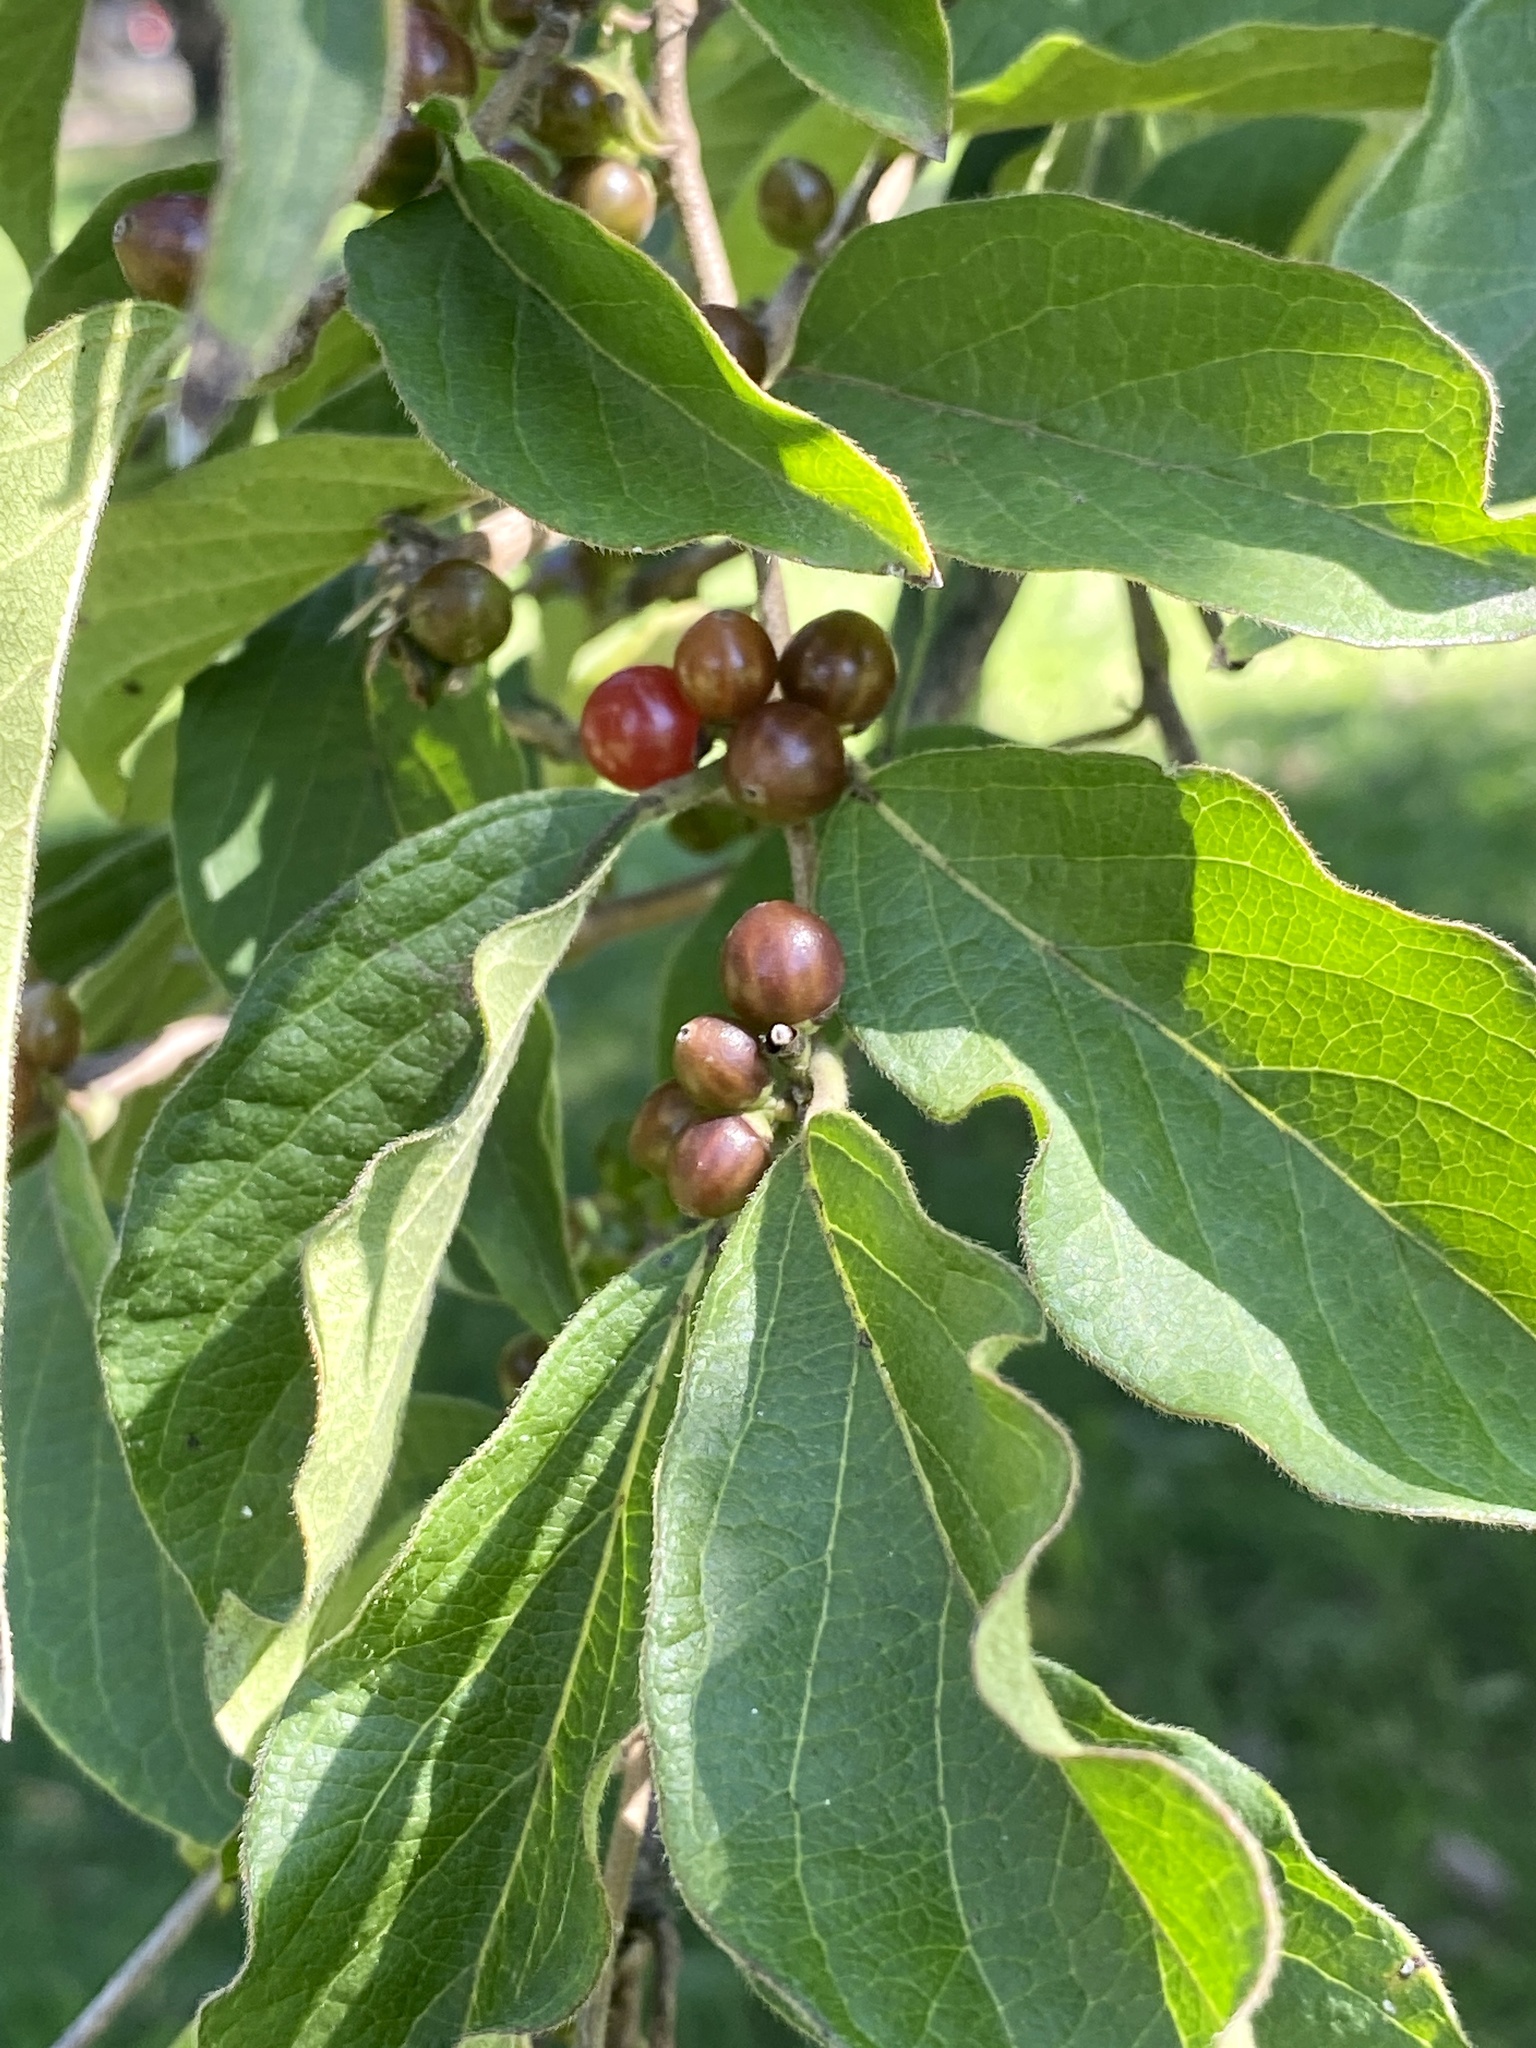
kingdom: Plantae
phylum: Tracheophyta
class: Magnoliopsida
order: Dipsacales
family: Caprifoliaceae
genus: Lonicera
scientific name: Lonicera maackii
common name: Amur honeysuckle
